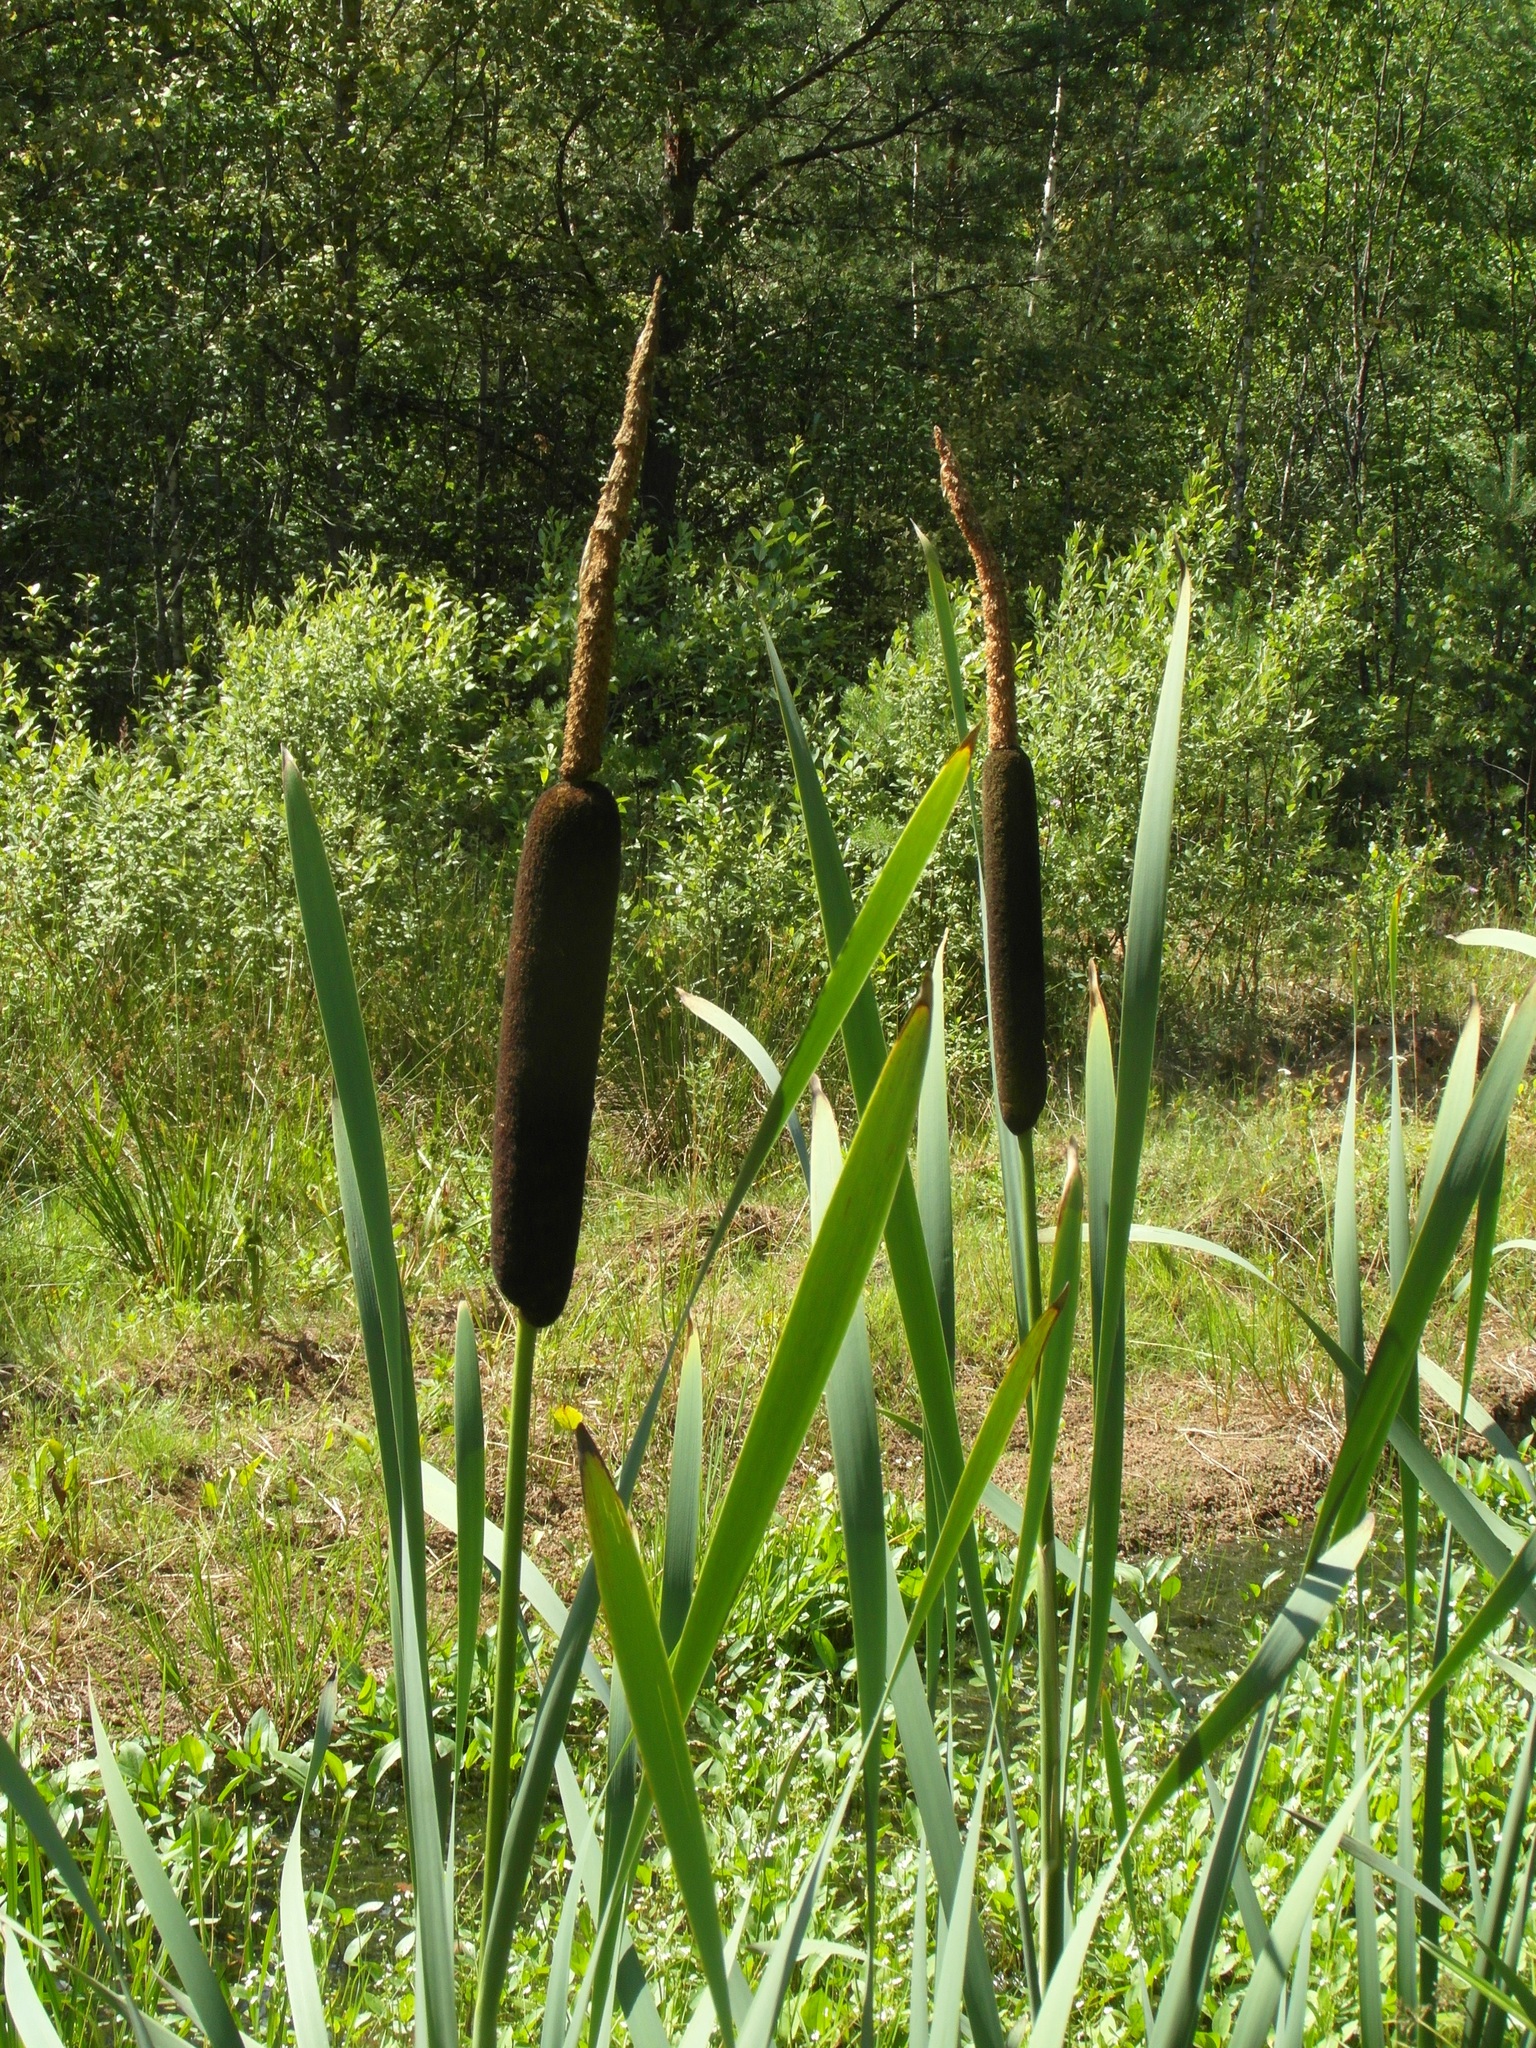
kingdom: Plantae
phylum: Tracheophyta
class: Liliopsida
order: Poales
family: Typhaceae
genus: Typha
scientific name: Typha latifolia
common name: Broadleaf cattail
